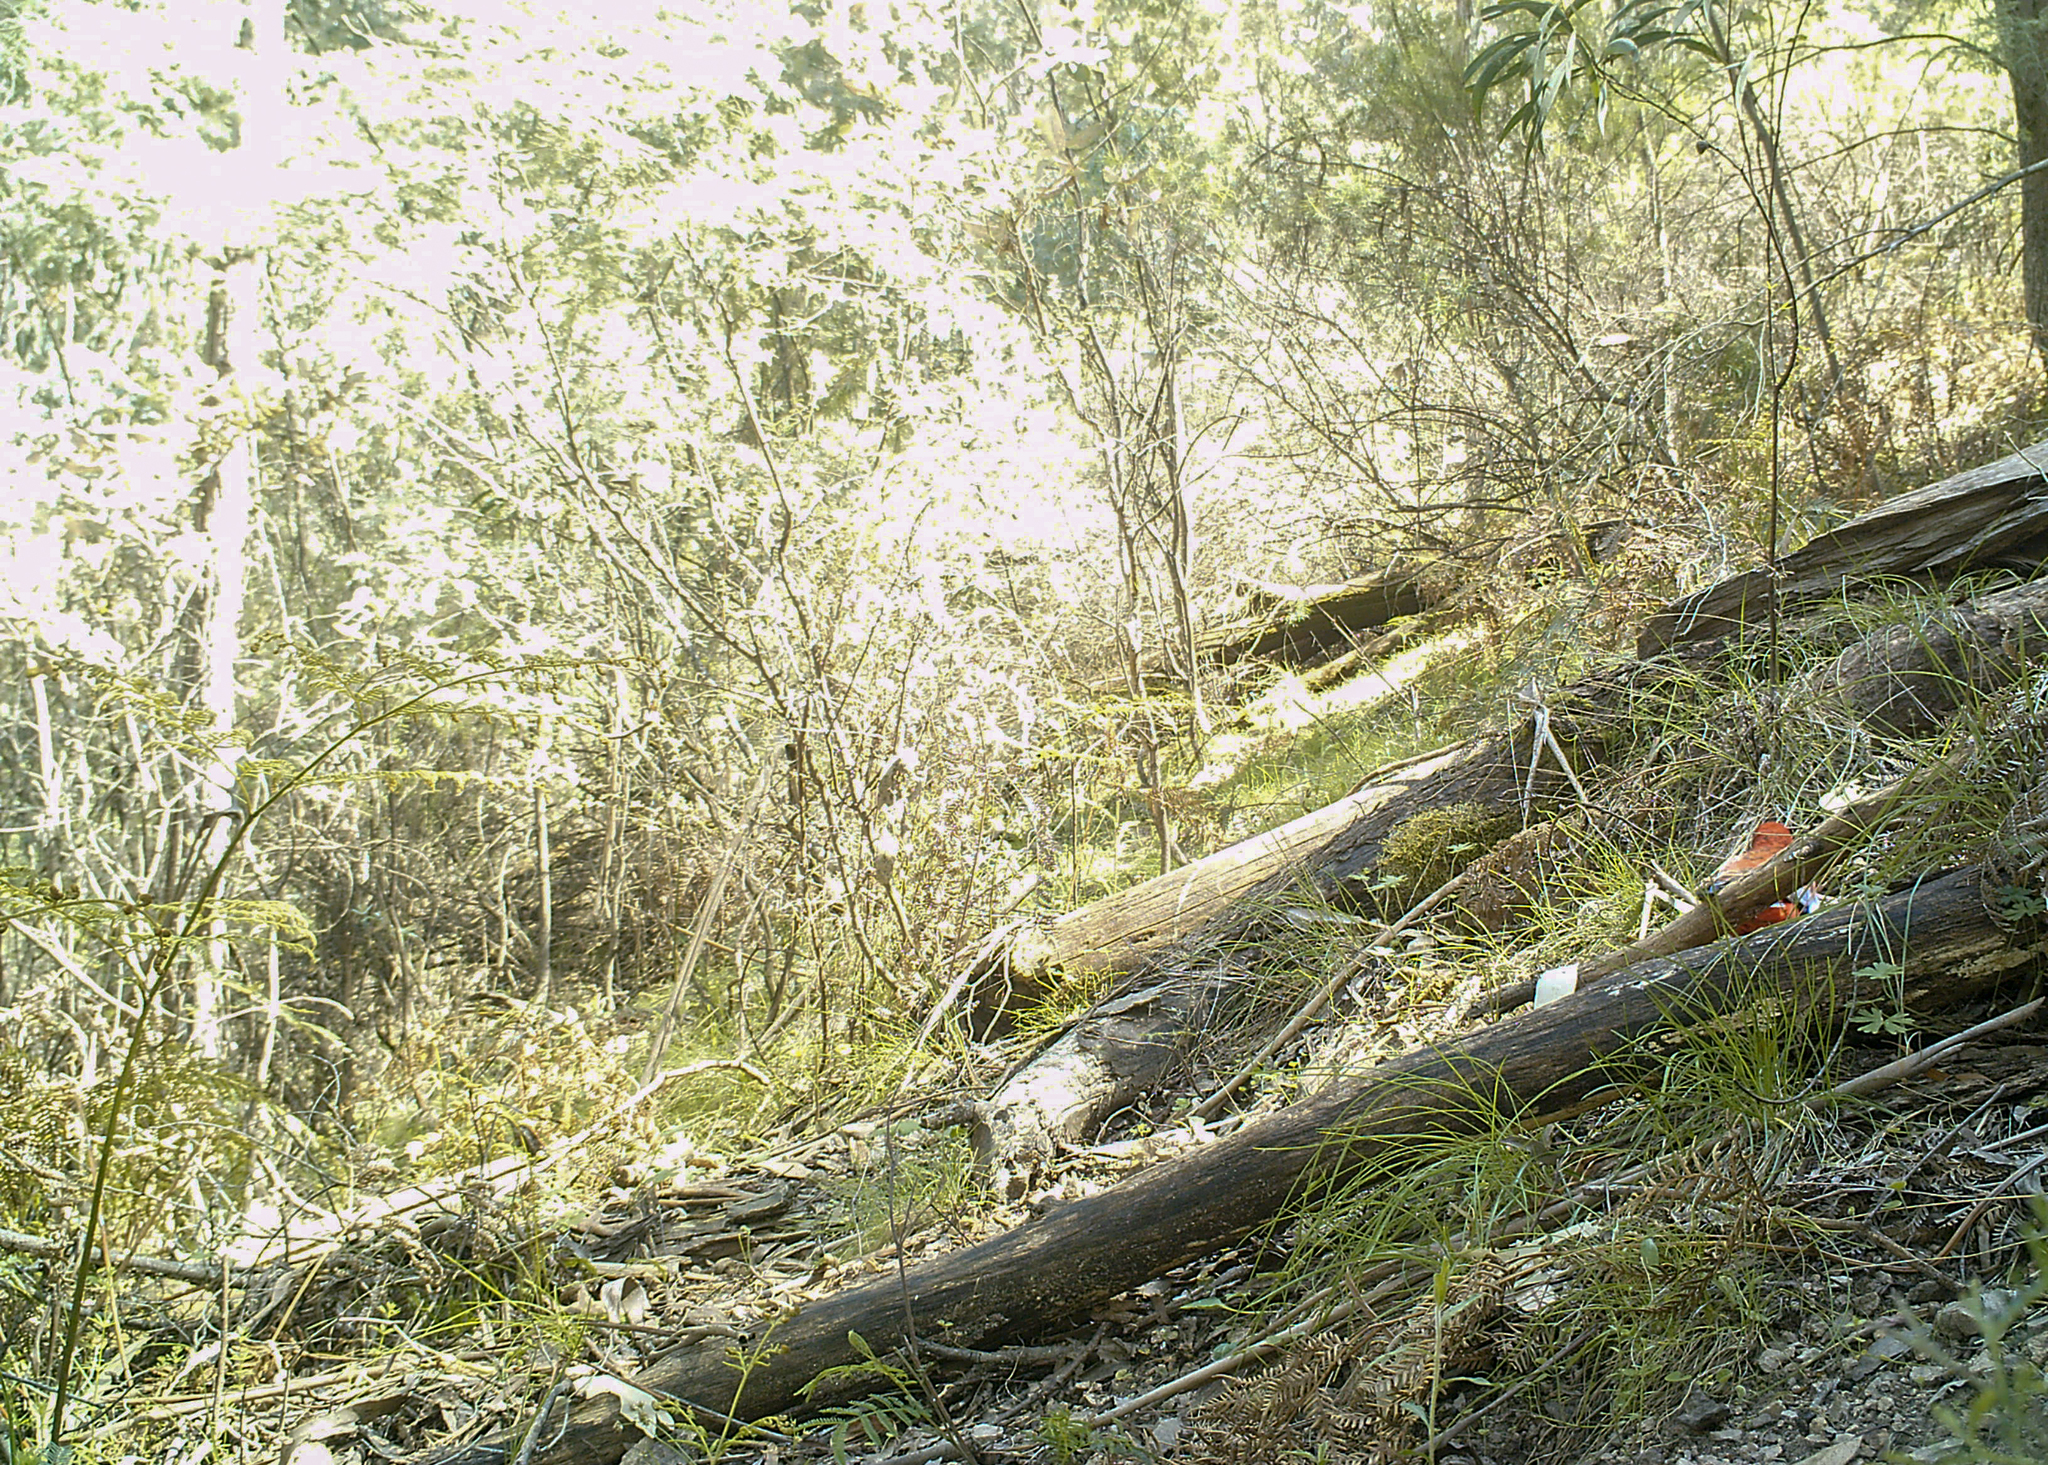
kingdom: Animalia
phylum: Chordata
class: Aves
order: Psittaciformes
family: Psittacidae
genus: Platycercus
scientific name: Platycercus elegans
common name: Crimson rosella
